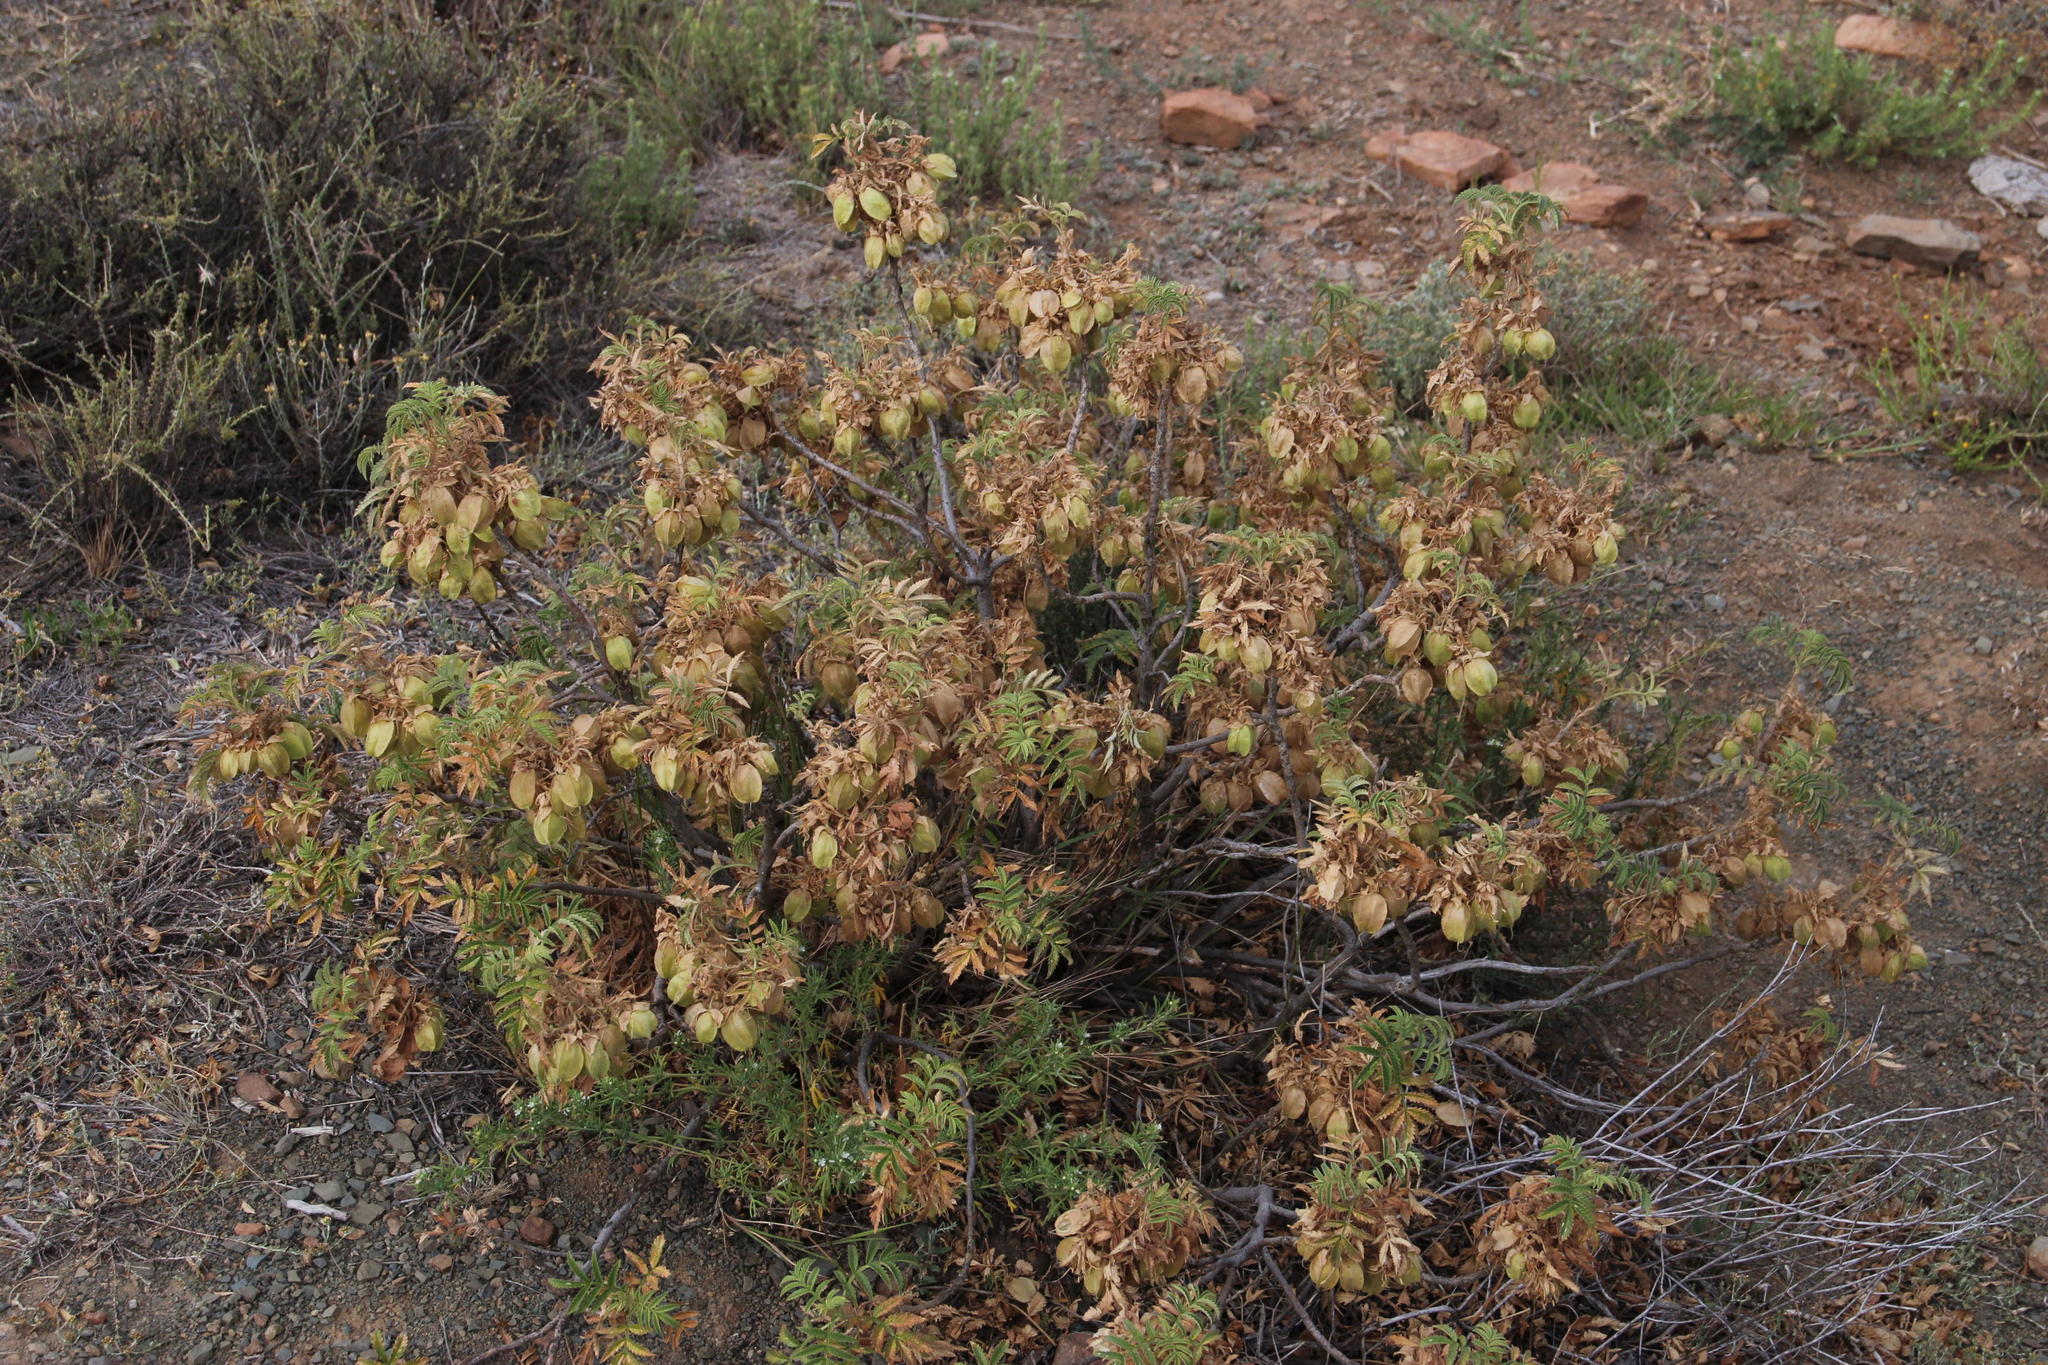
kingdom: Plantae
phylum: Tracheophyta
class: Magnoliopsida
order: Geraniales
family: Melianthaceae
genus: Melianthus
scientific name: Melianthus comosus
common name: Touch-me-not
